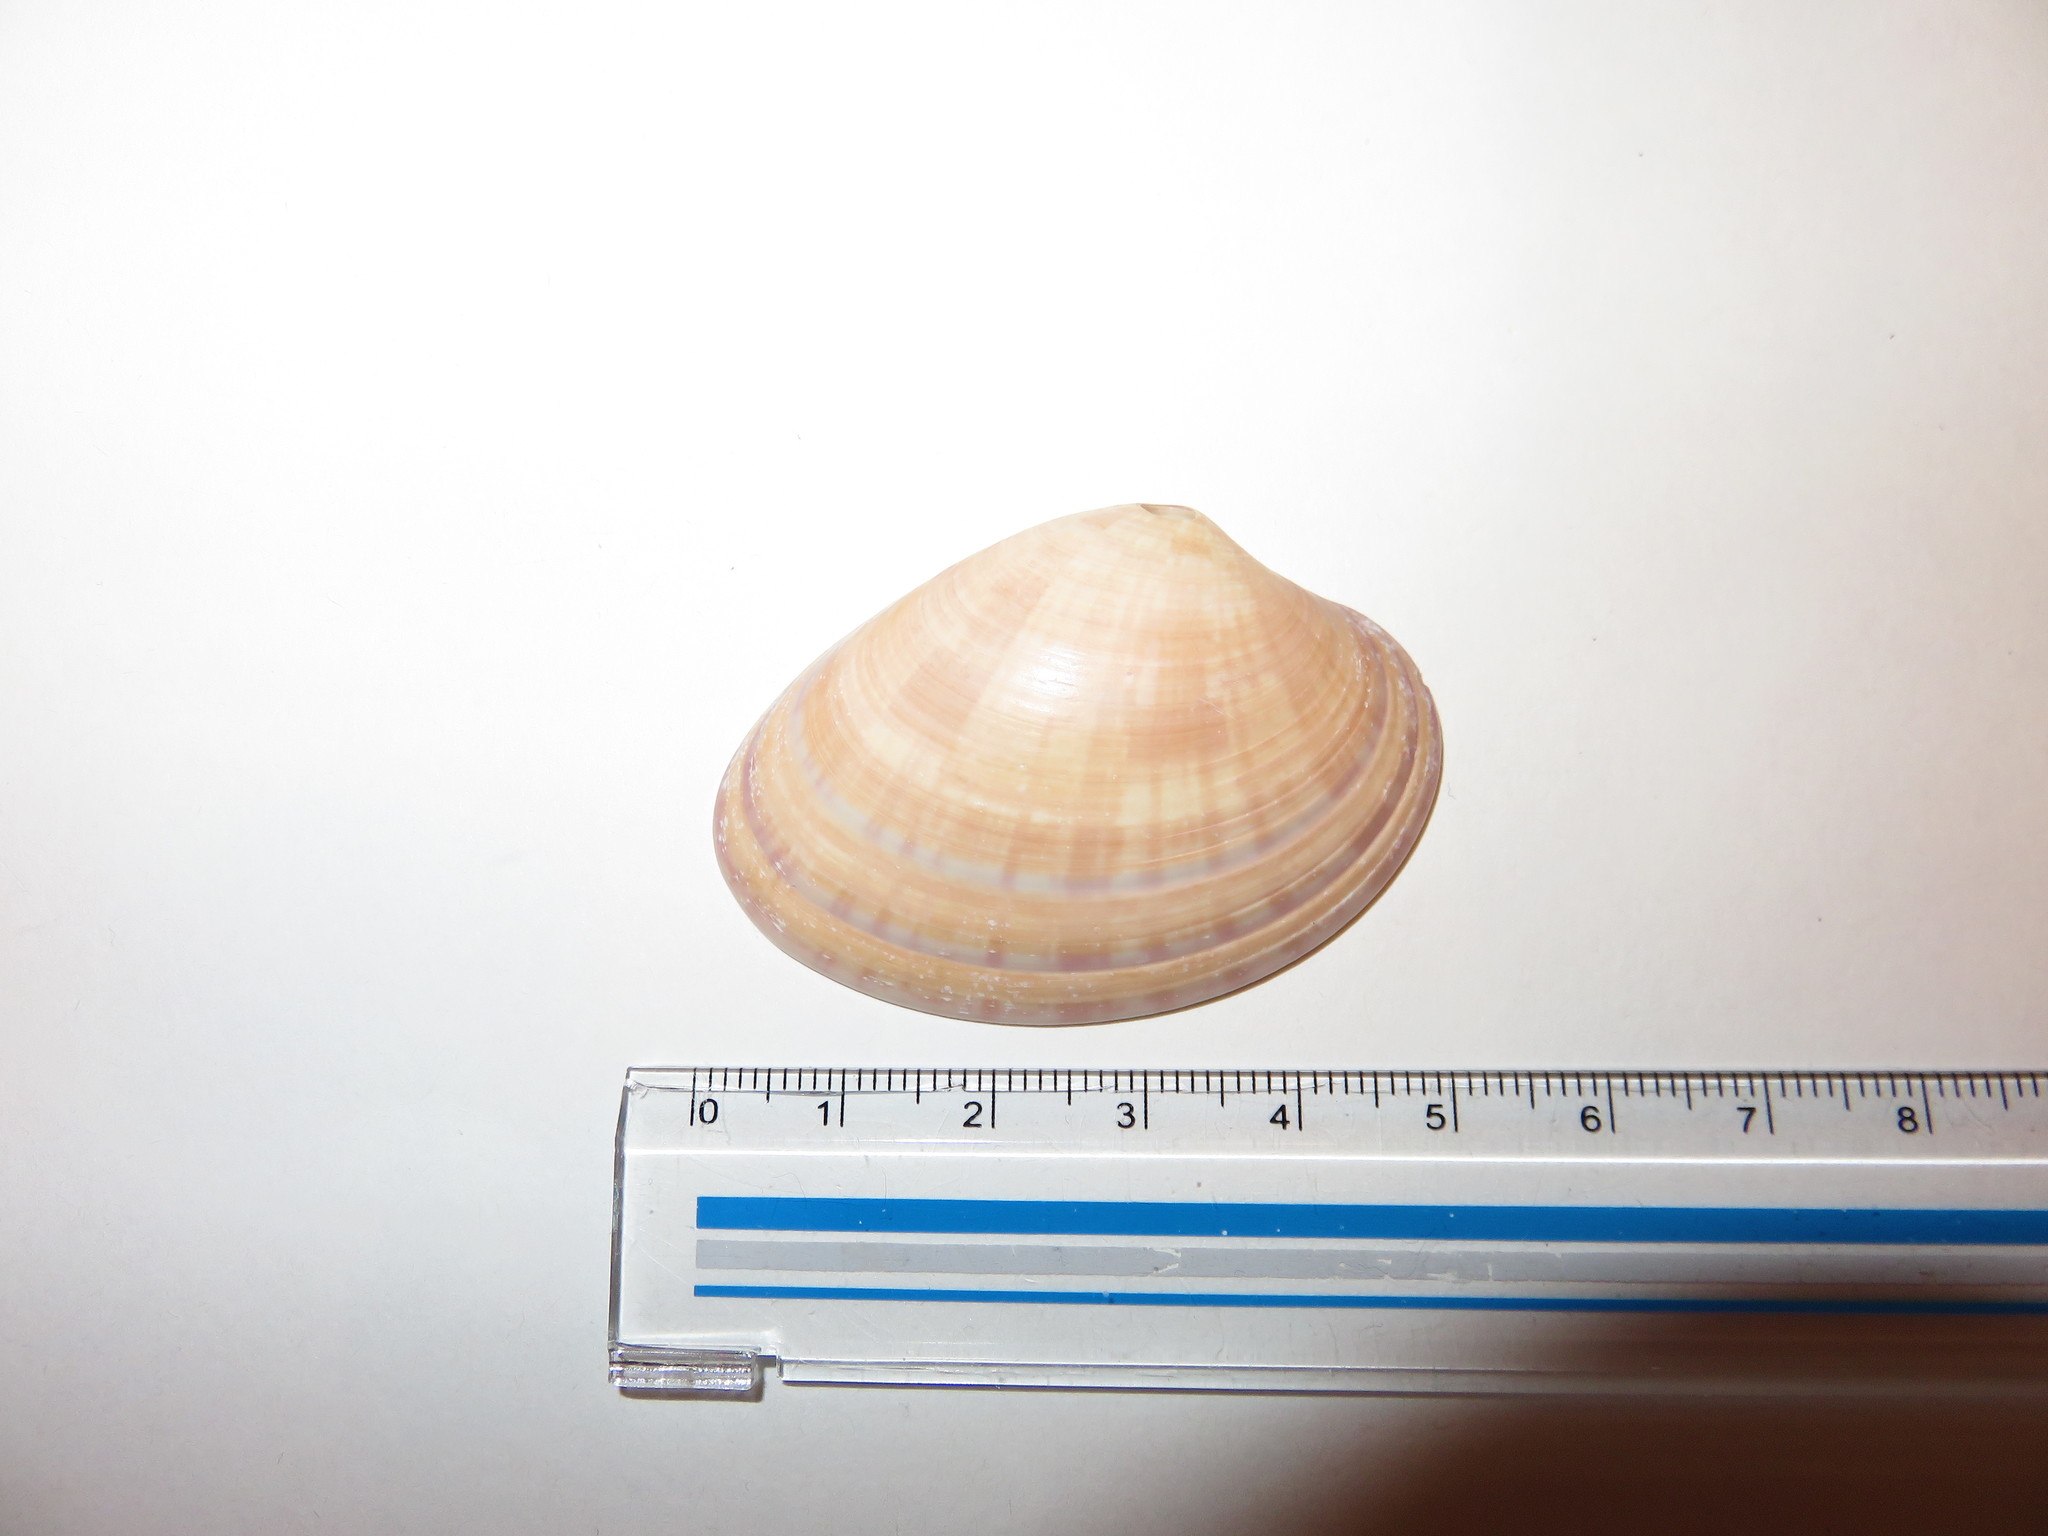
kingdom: Animalia
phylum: Mollusca
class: Bivalvia
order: Venerida
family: Veneridae
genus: Callista
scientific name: Callista chinensis
